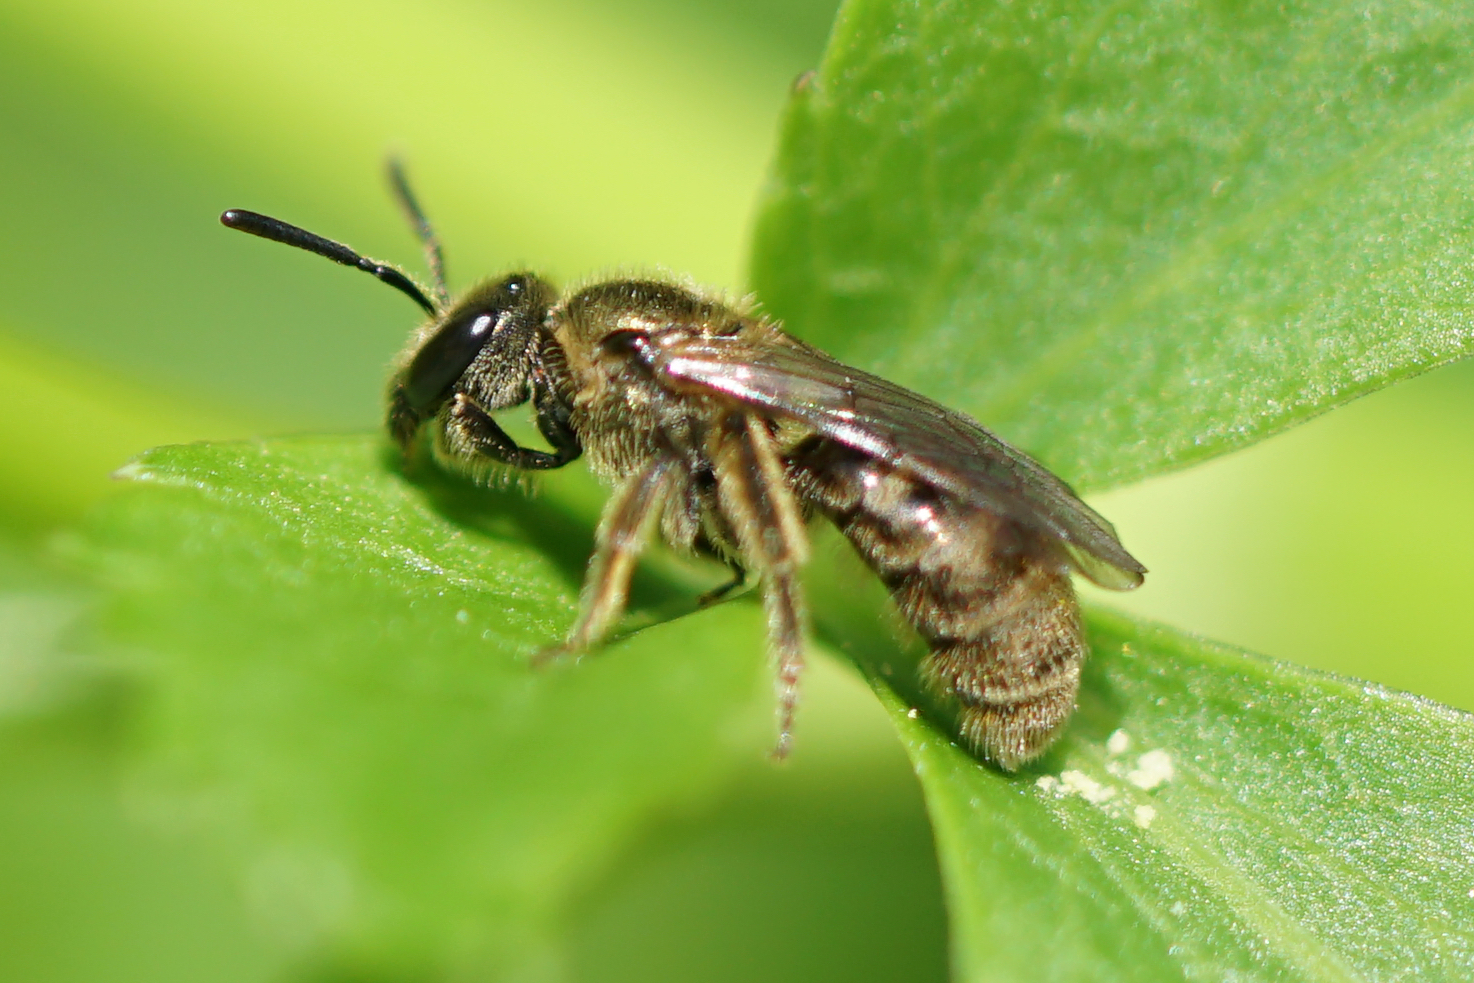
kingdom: Animalia
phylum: Arthropoda
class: Insecta
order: Hymenoptera
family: Halictidae
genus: Dialictus
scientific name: Dialictus
